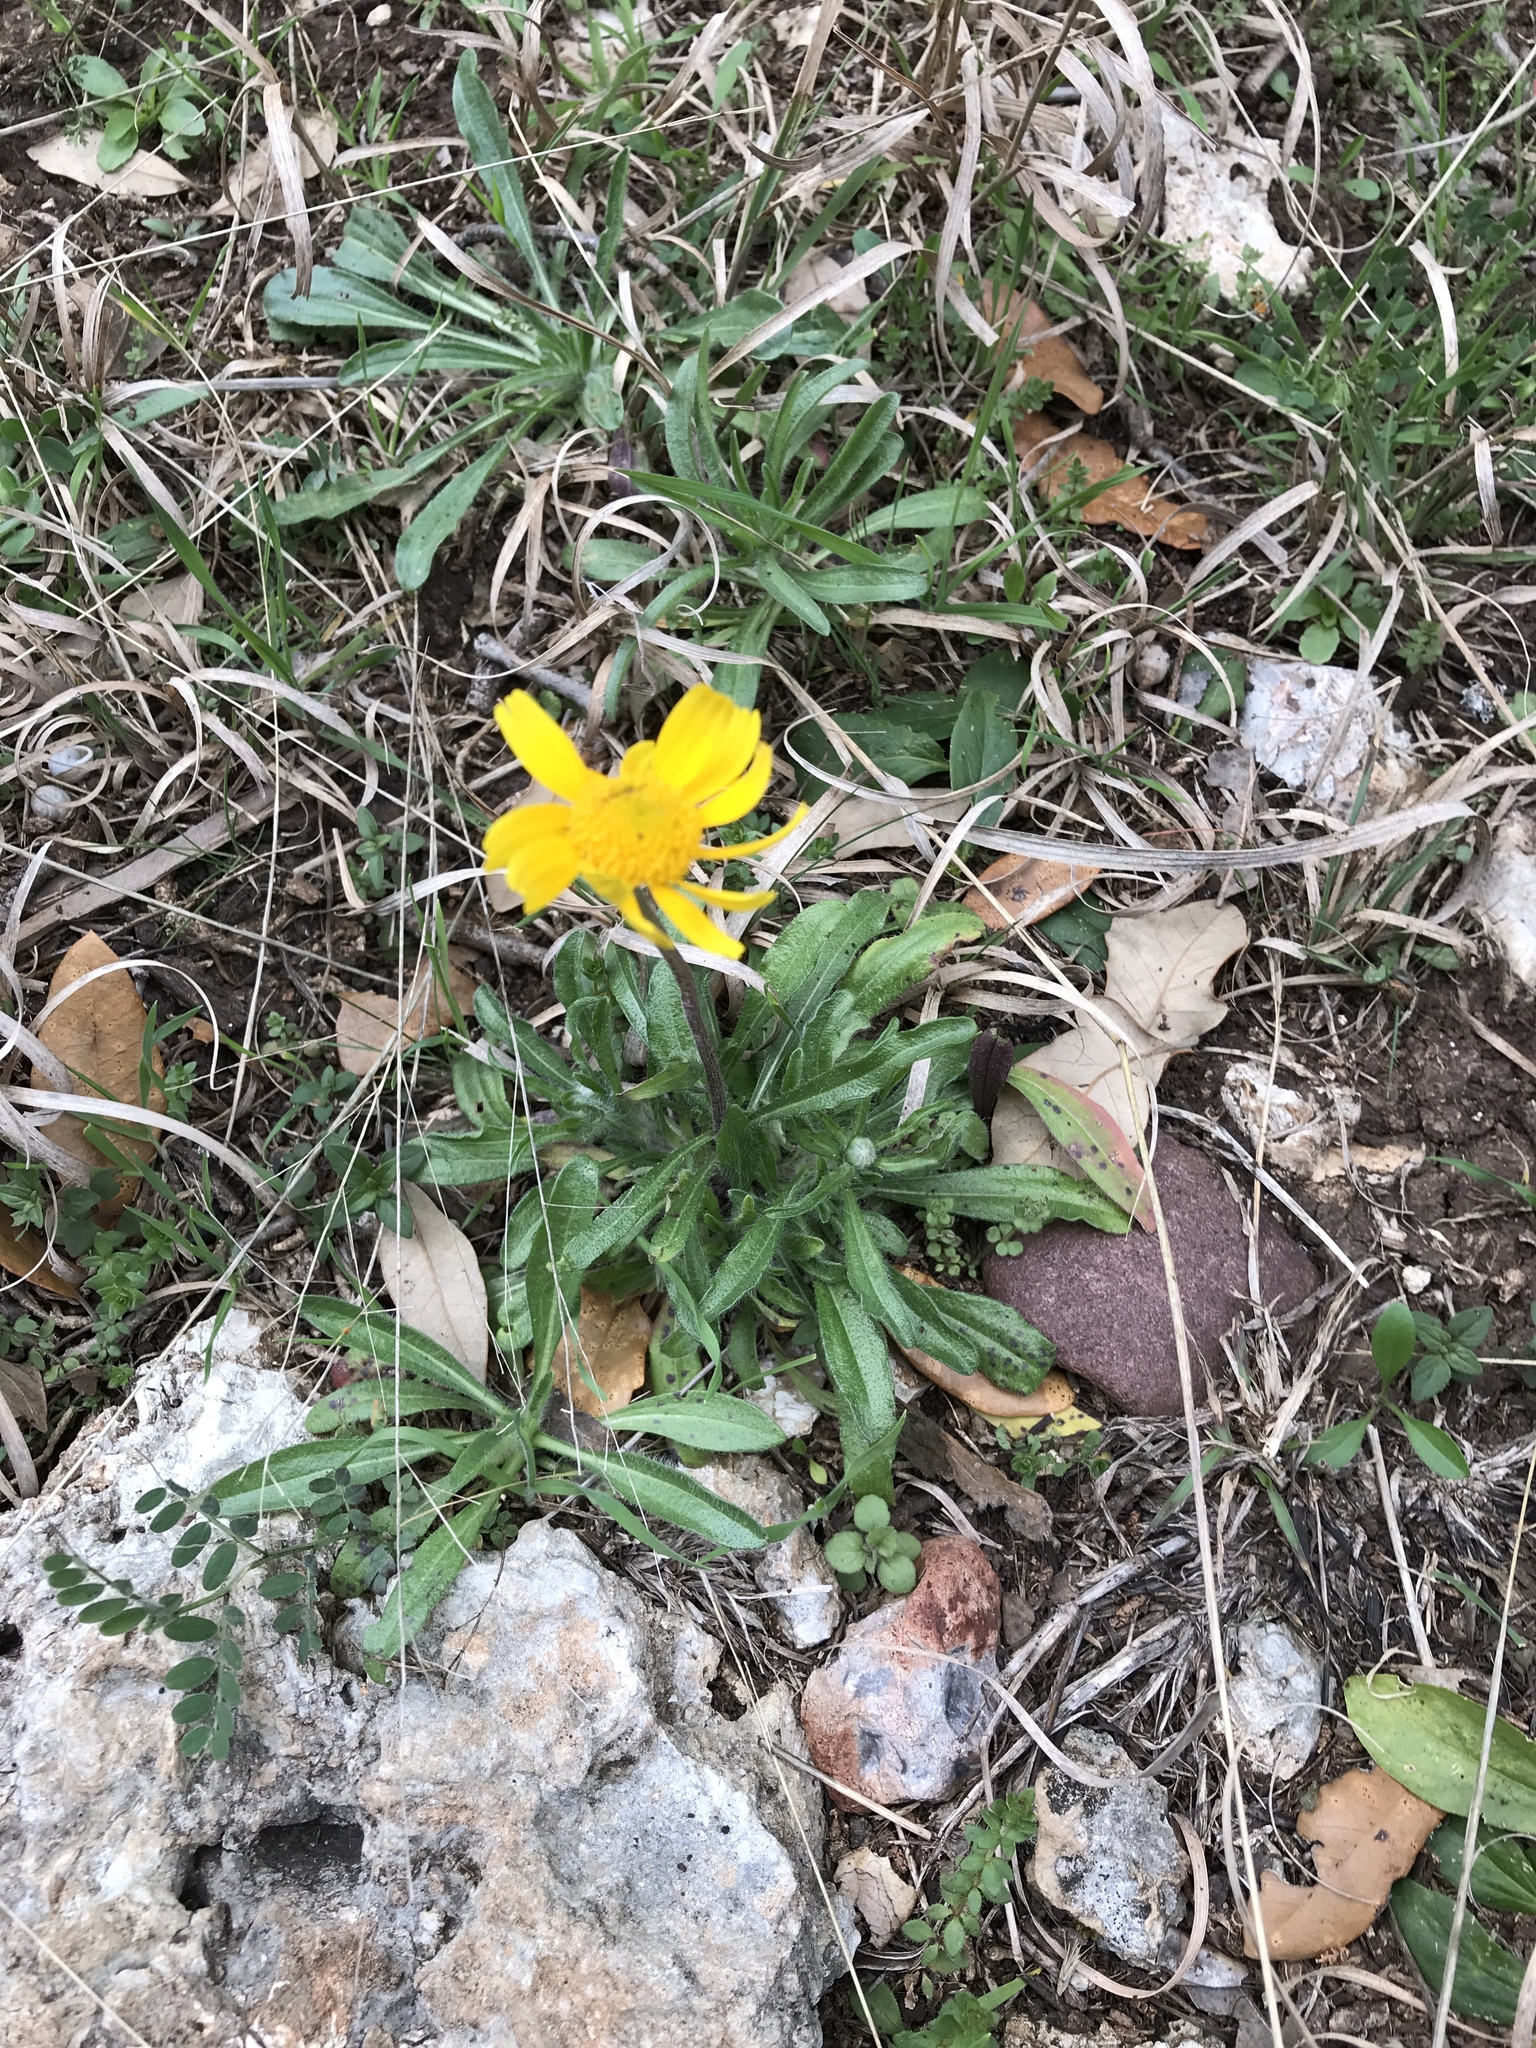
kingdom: Plantae
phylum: Tracheophyta
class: Magnoliopsida
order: Asterales
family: Asteraceae
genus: Tetraneuris
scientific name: Tetraneuris scaposa
